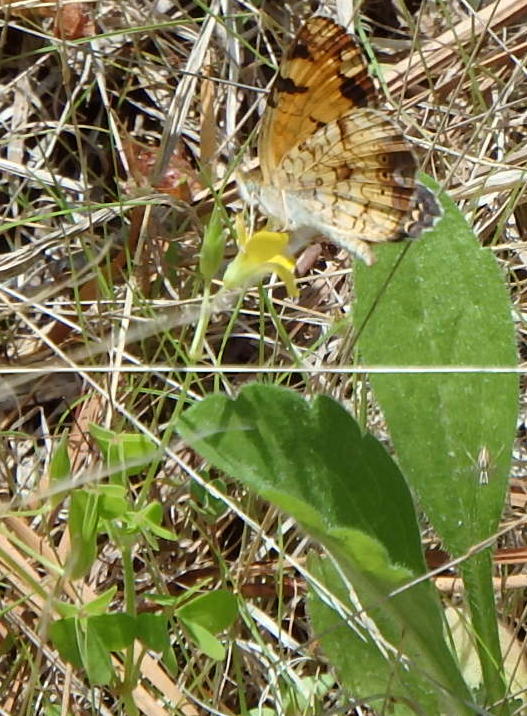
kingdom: Animalia
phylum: Arthropoda
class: Insecta
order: Lepidoptera
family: Nymphalidae
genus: Phyciodes
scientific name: Phyciodes tharos
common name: Pearl crescent
